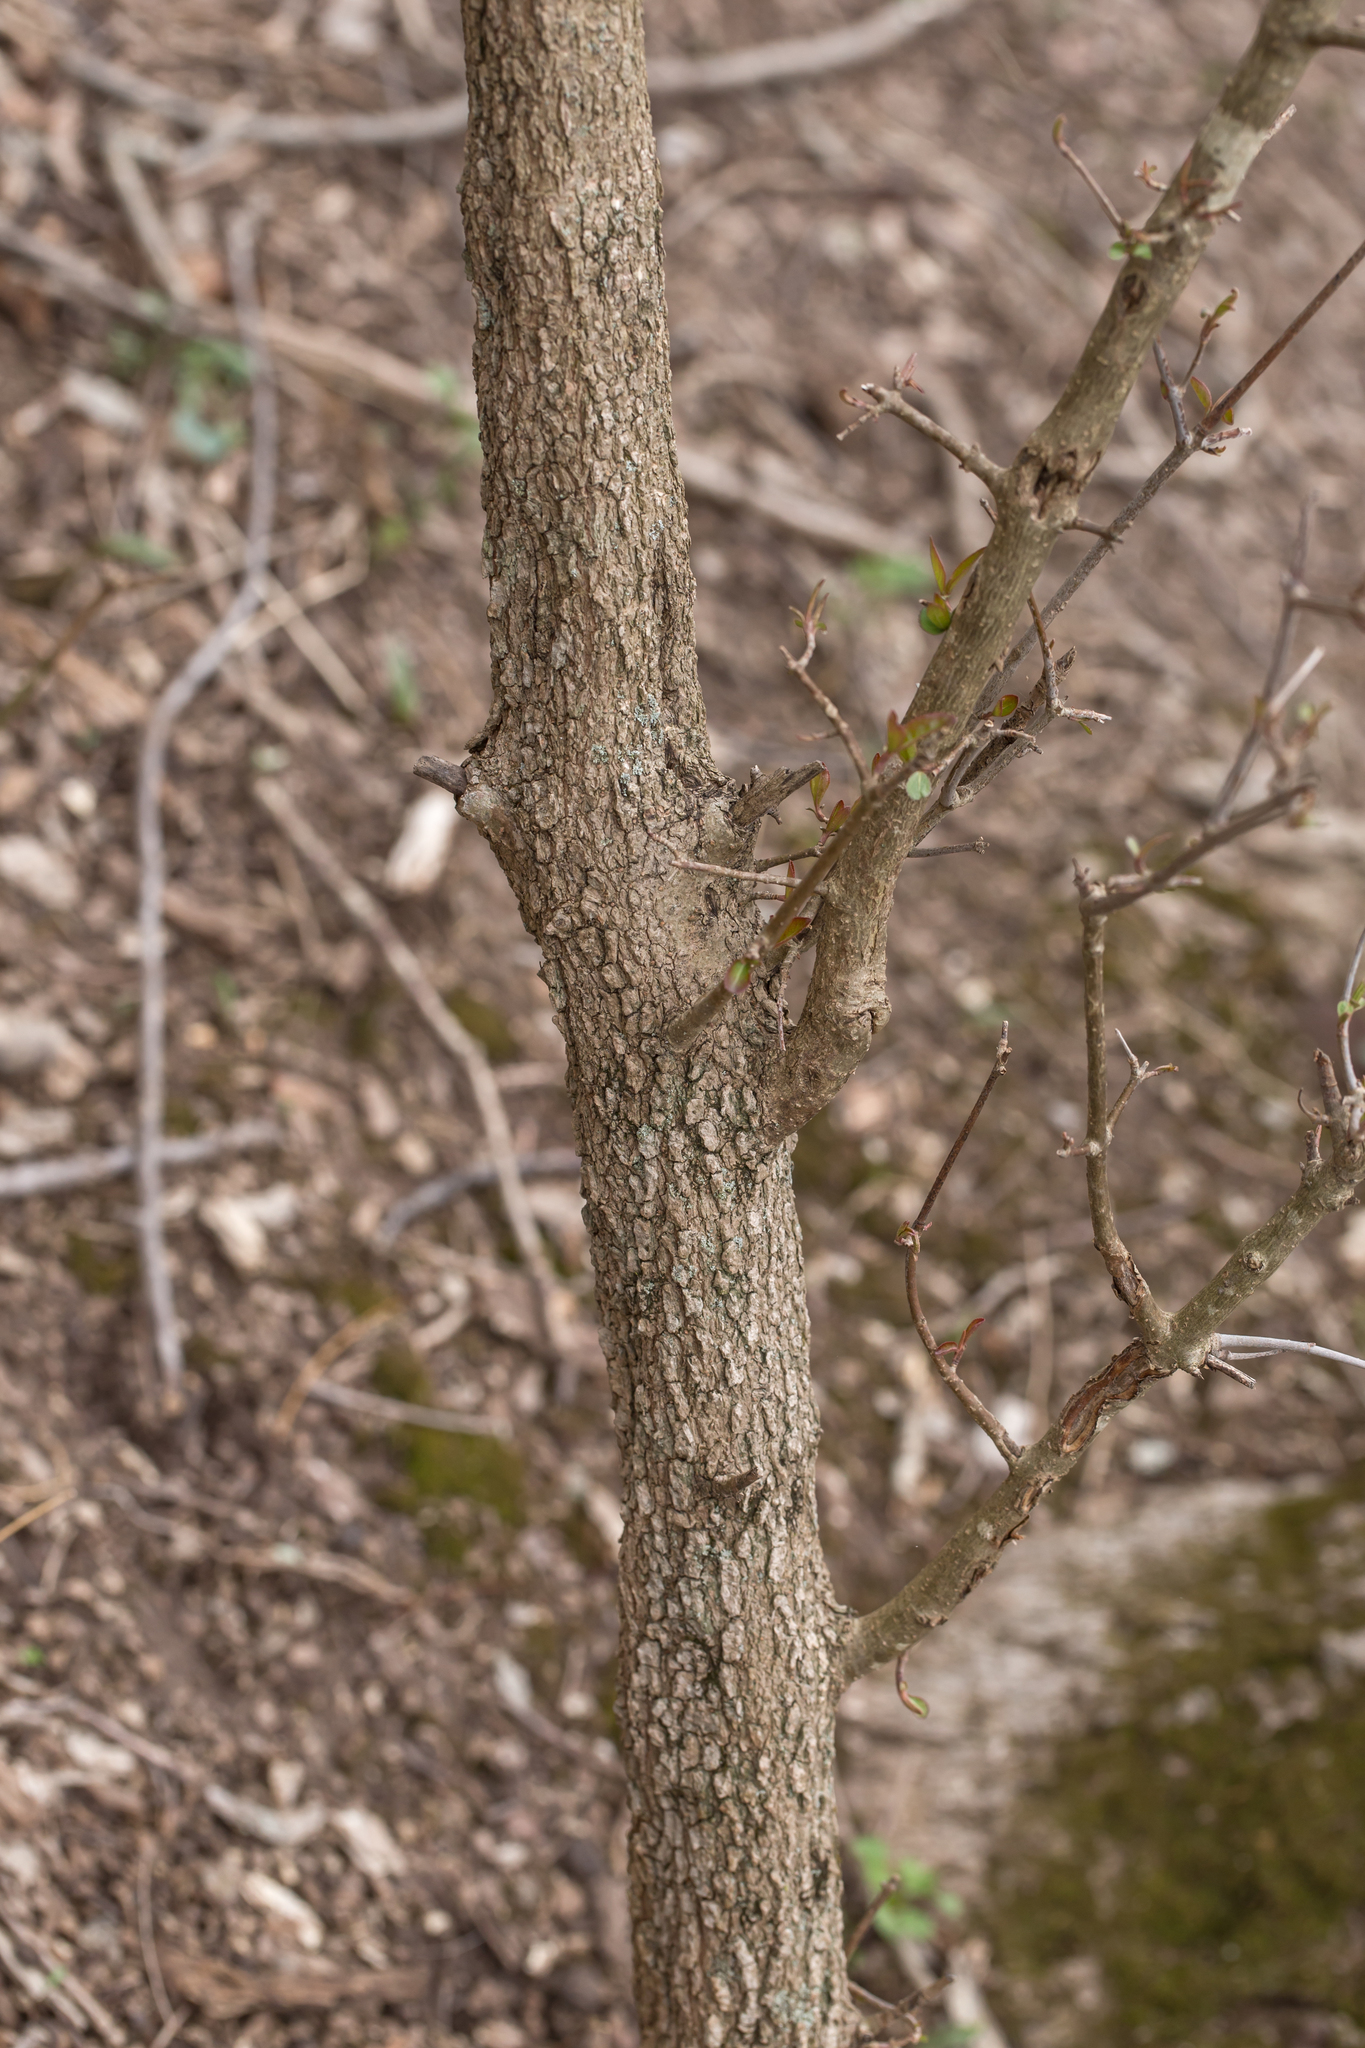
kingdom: Plantae
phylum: Tracheophyta
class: Magnoliopsida
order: Dipsacales
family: Viburnaceae
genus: Viburnum
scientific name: Viburnum prunifolium
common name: Black haw
